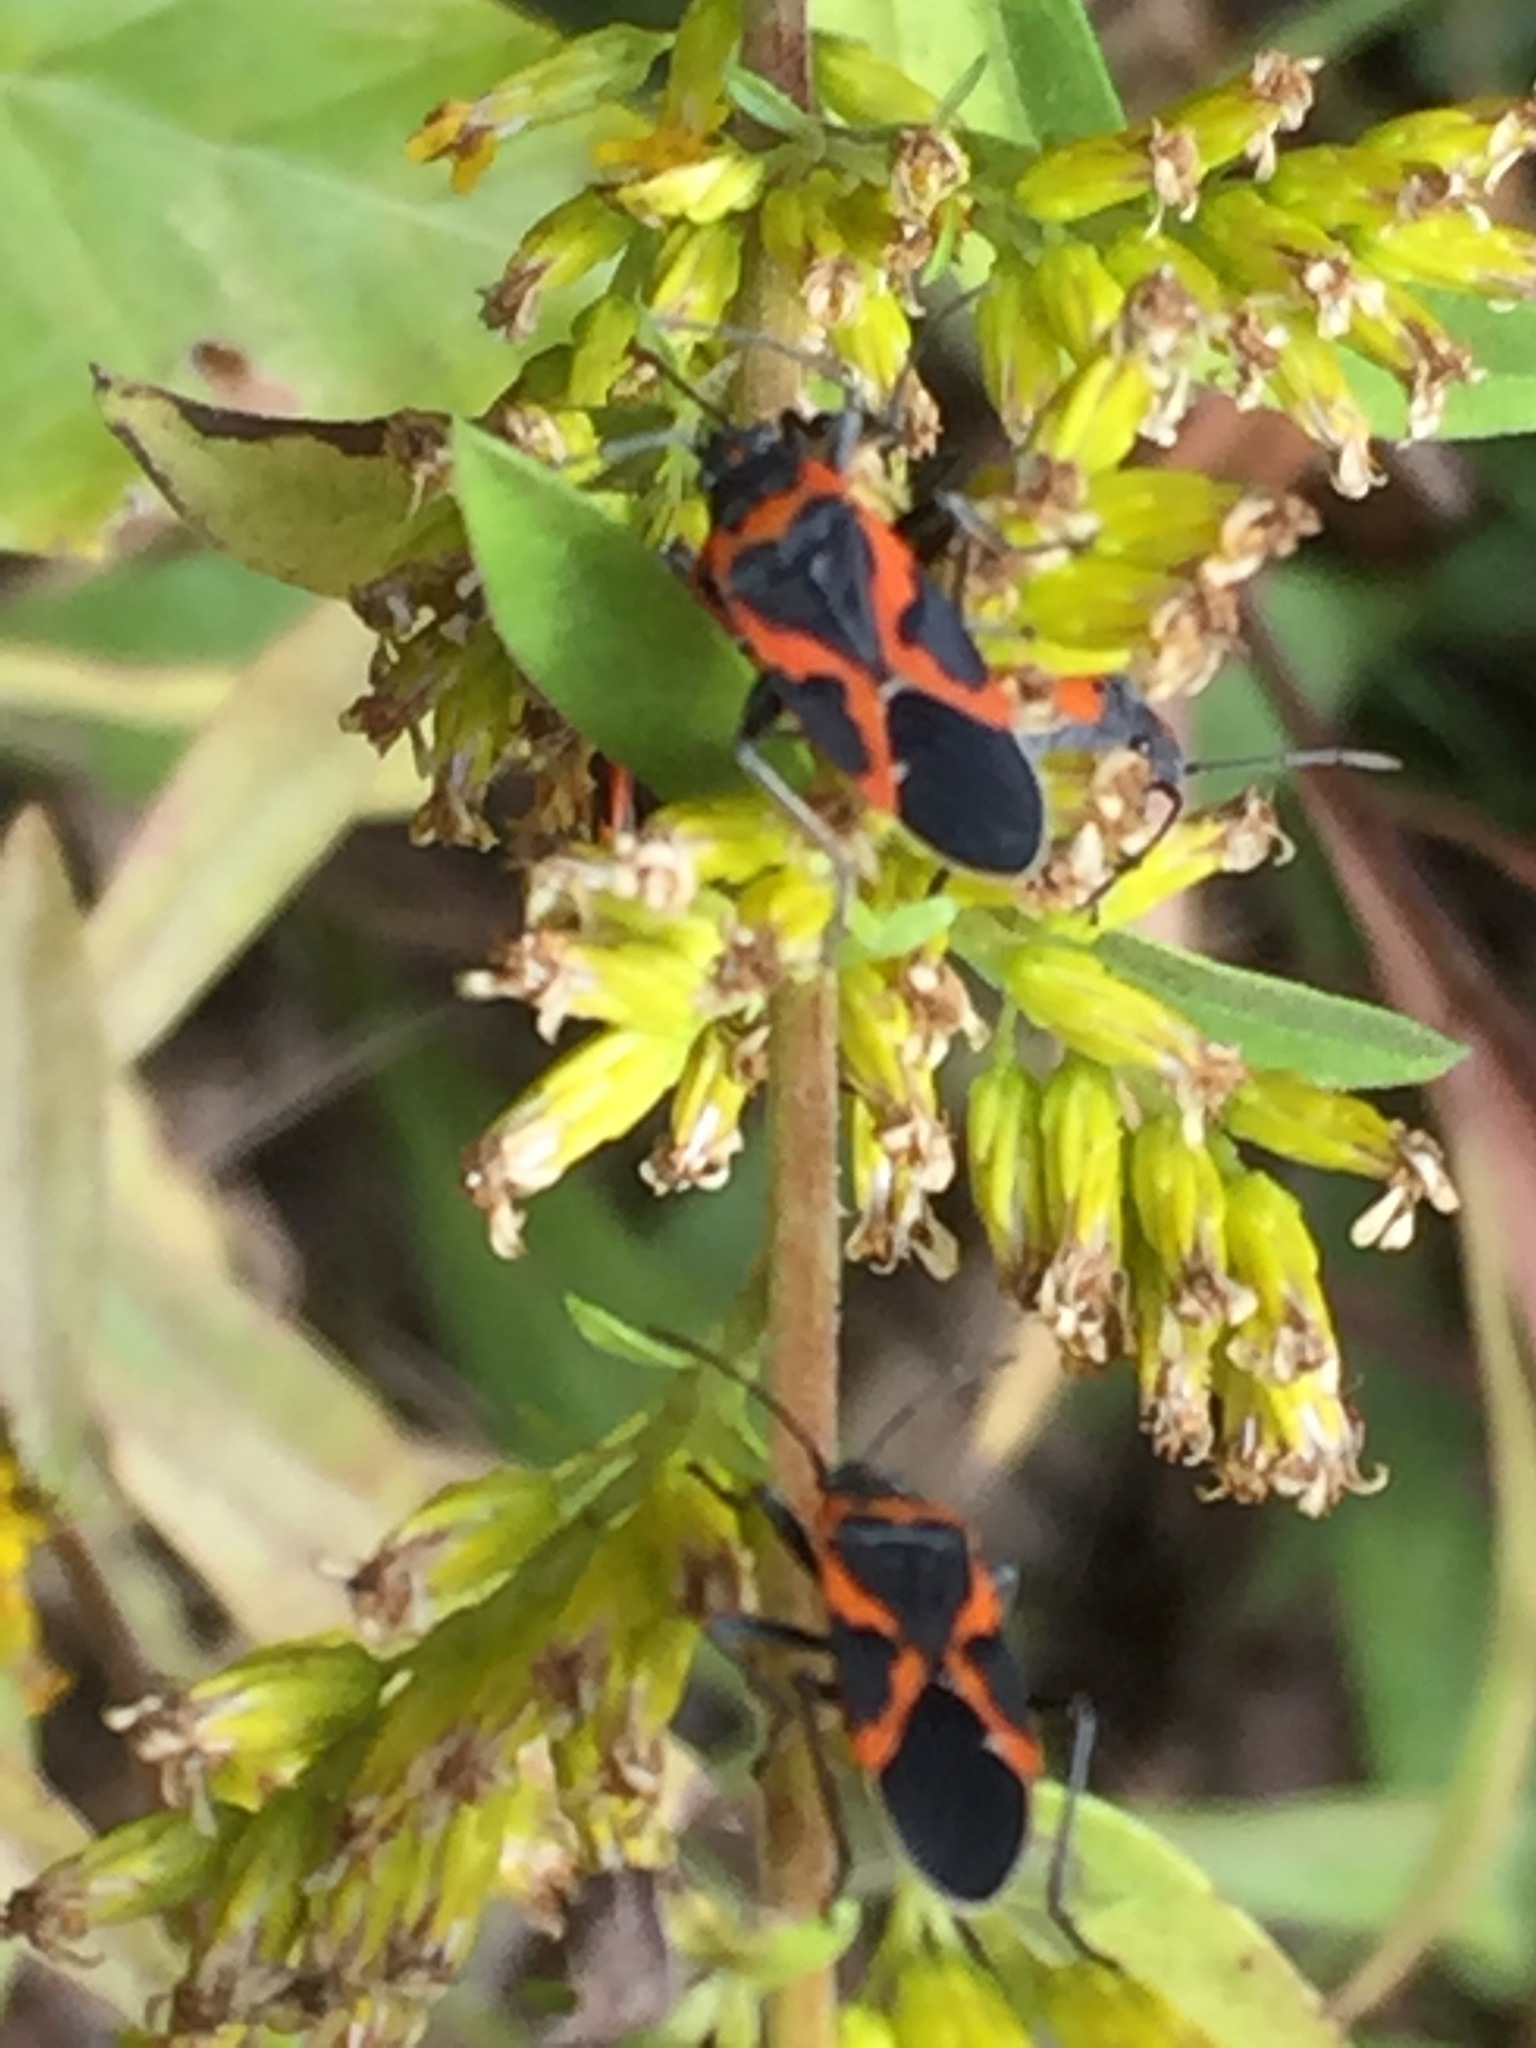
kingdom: Animalia
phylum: Arthropoda
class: Insecta
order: Hemiptera
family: Lygaeidae
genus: Lygaeus
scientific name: Lygaeus kalmii
